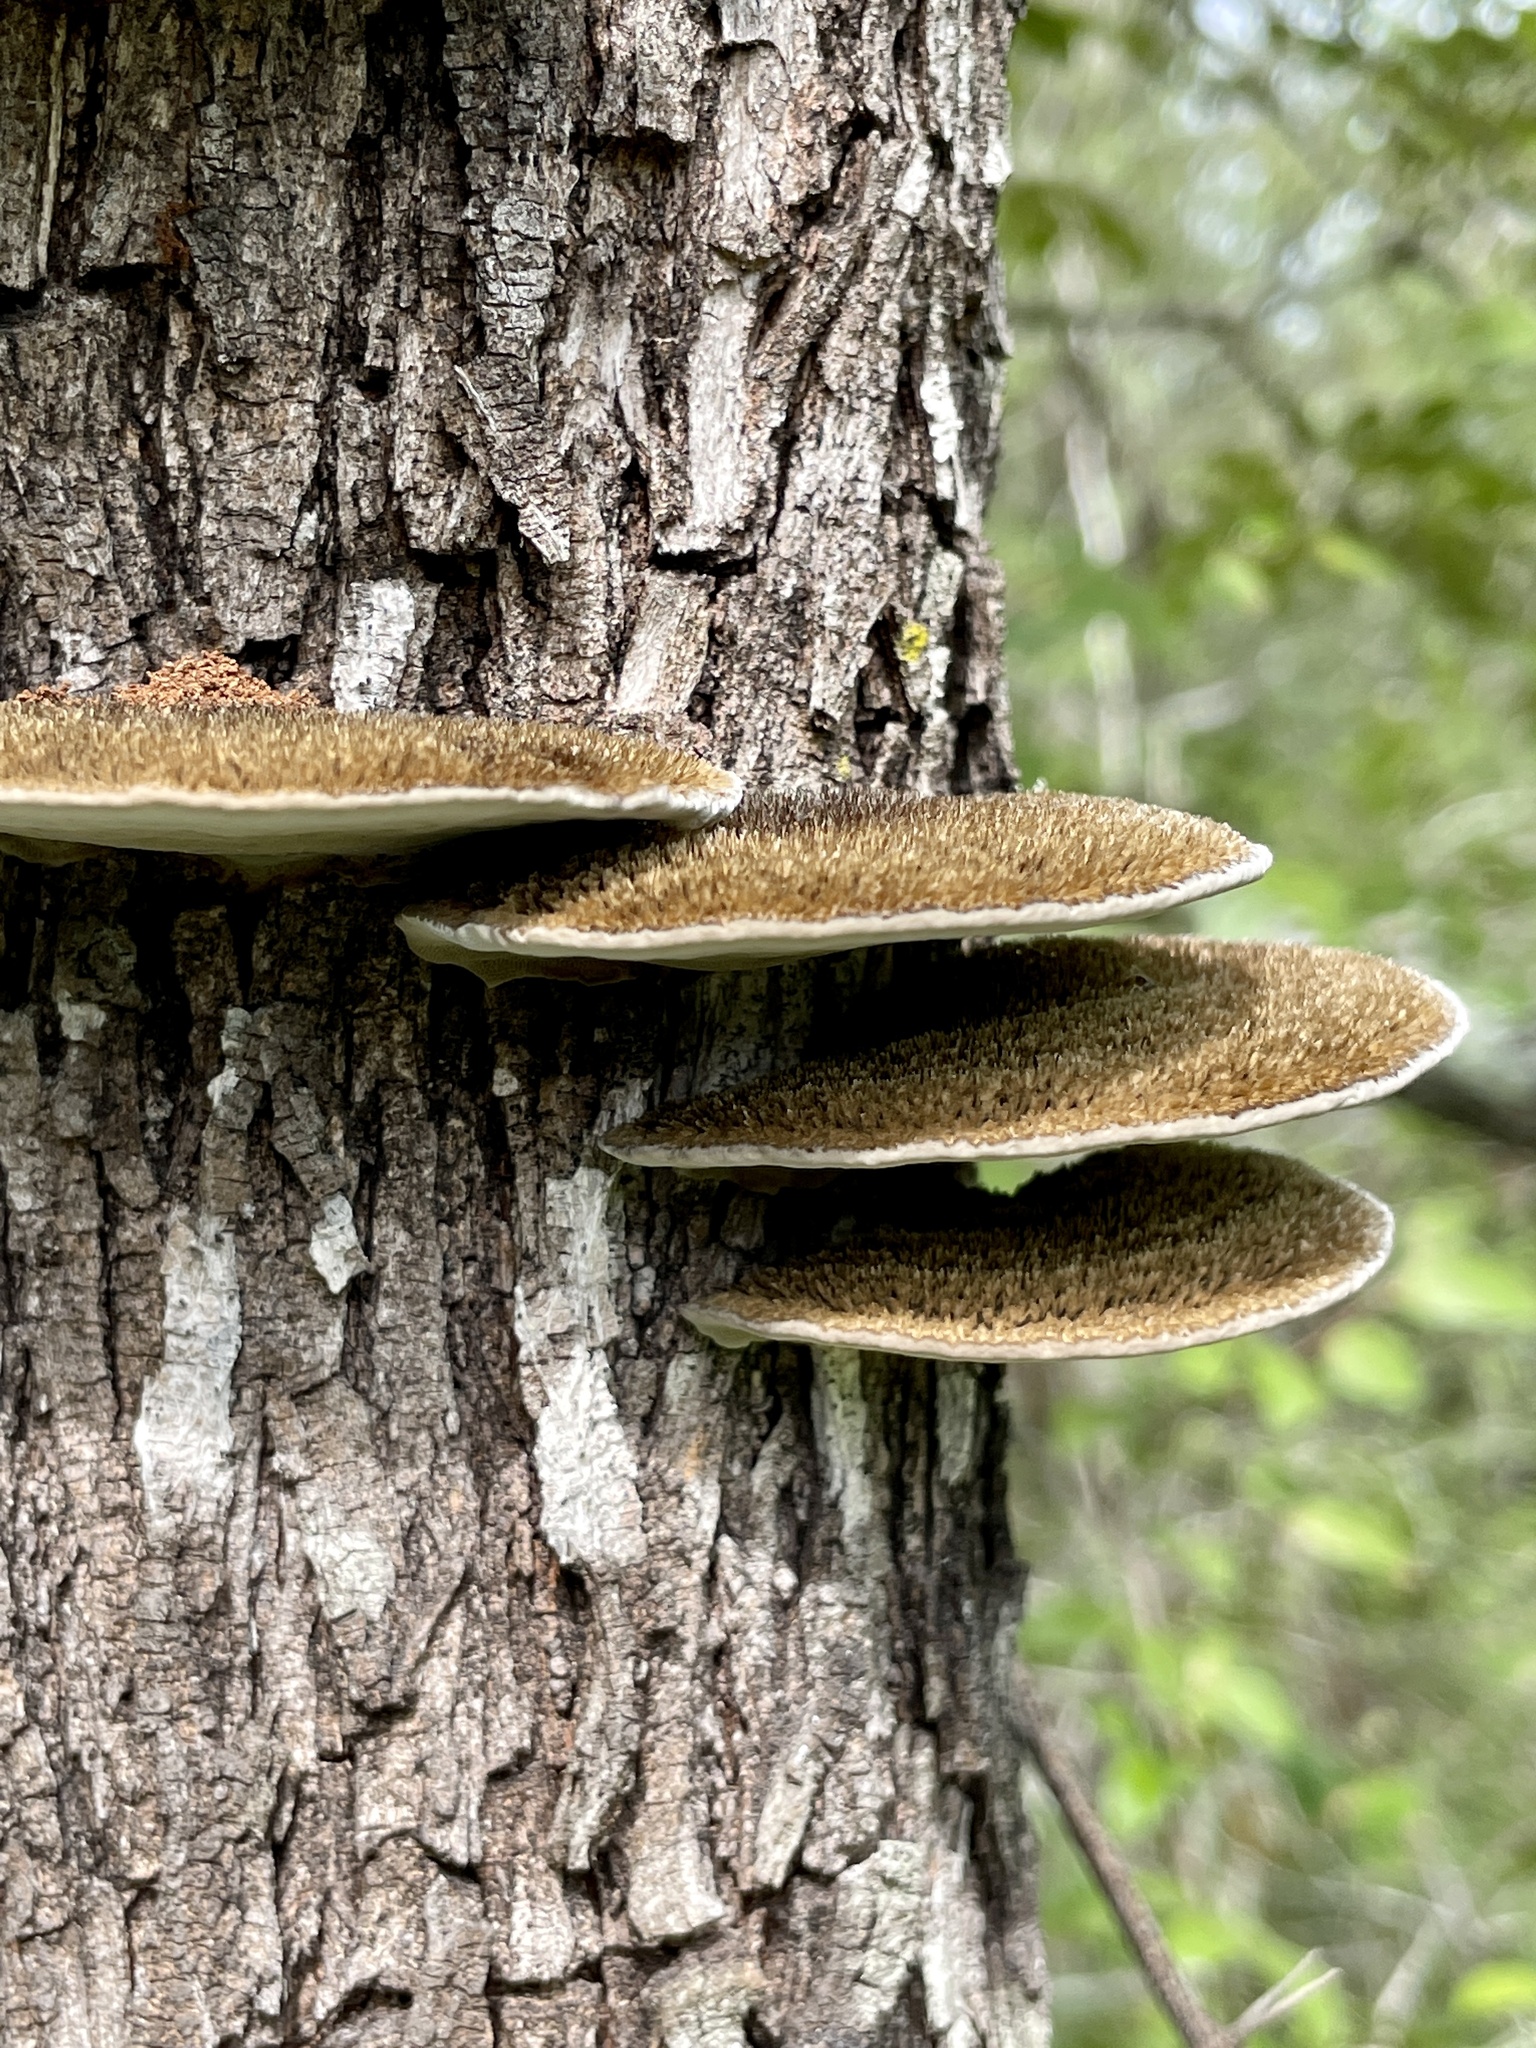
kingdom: Fungi
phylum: Basidiomycota
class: Agaricomycetes
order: Polyporales
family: Cerrenaceae
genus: Cerrena
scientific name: Cerrena hydnoides
